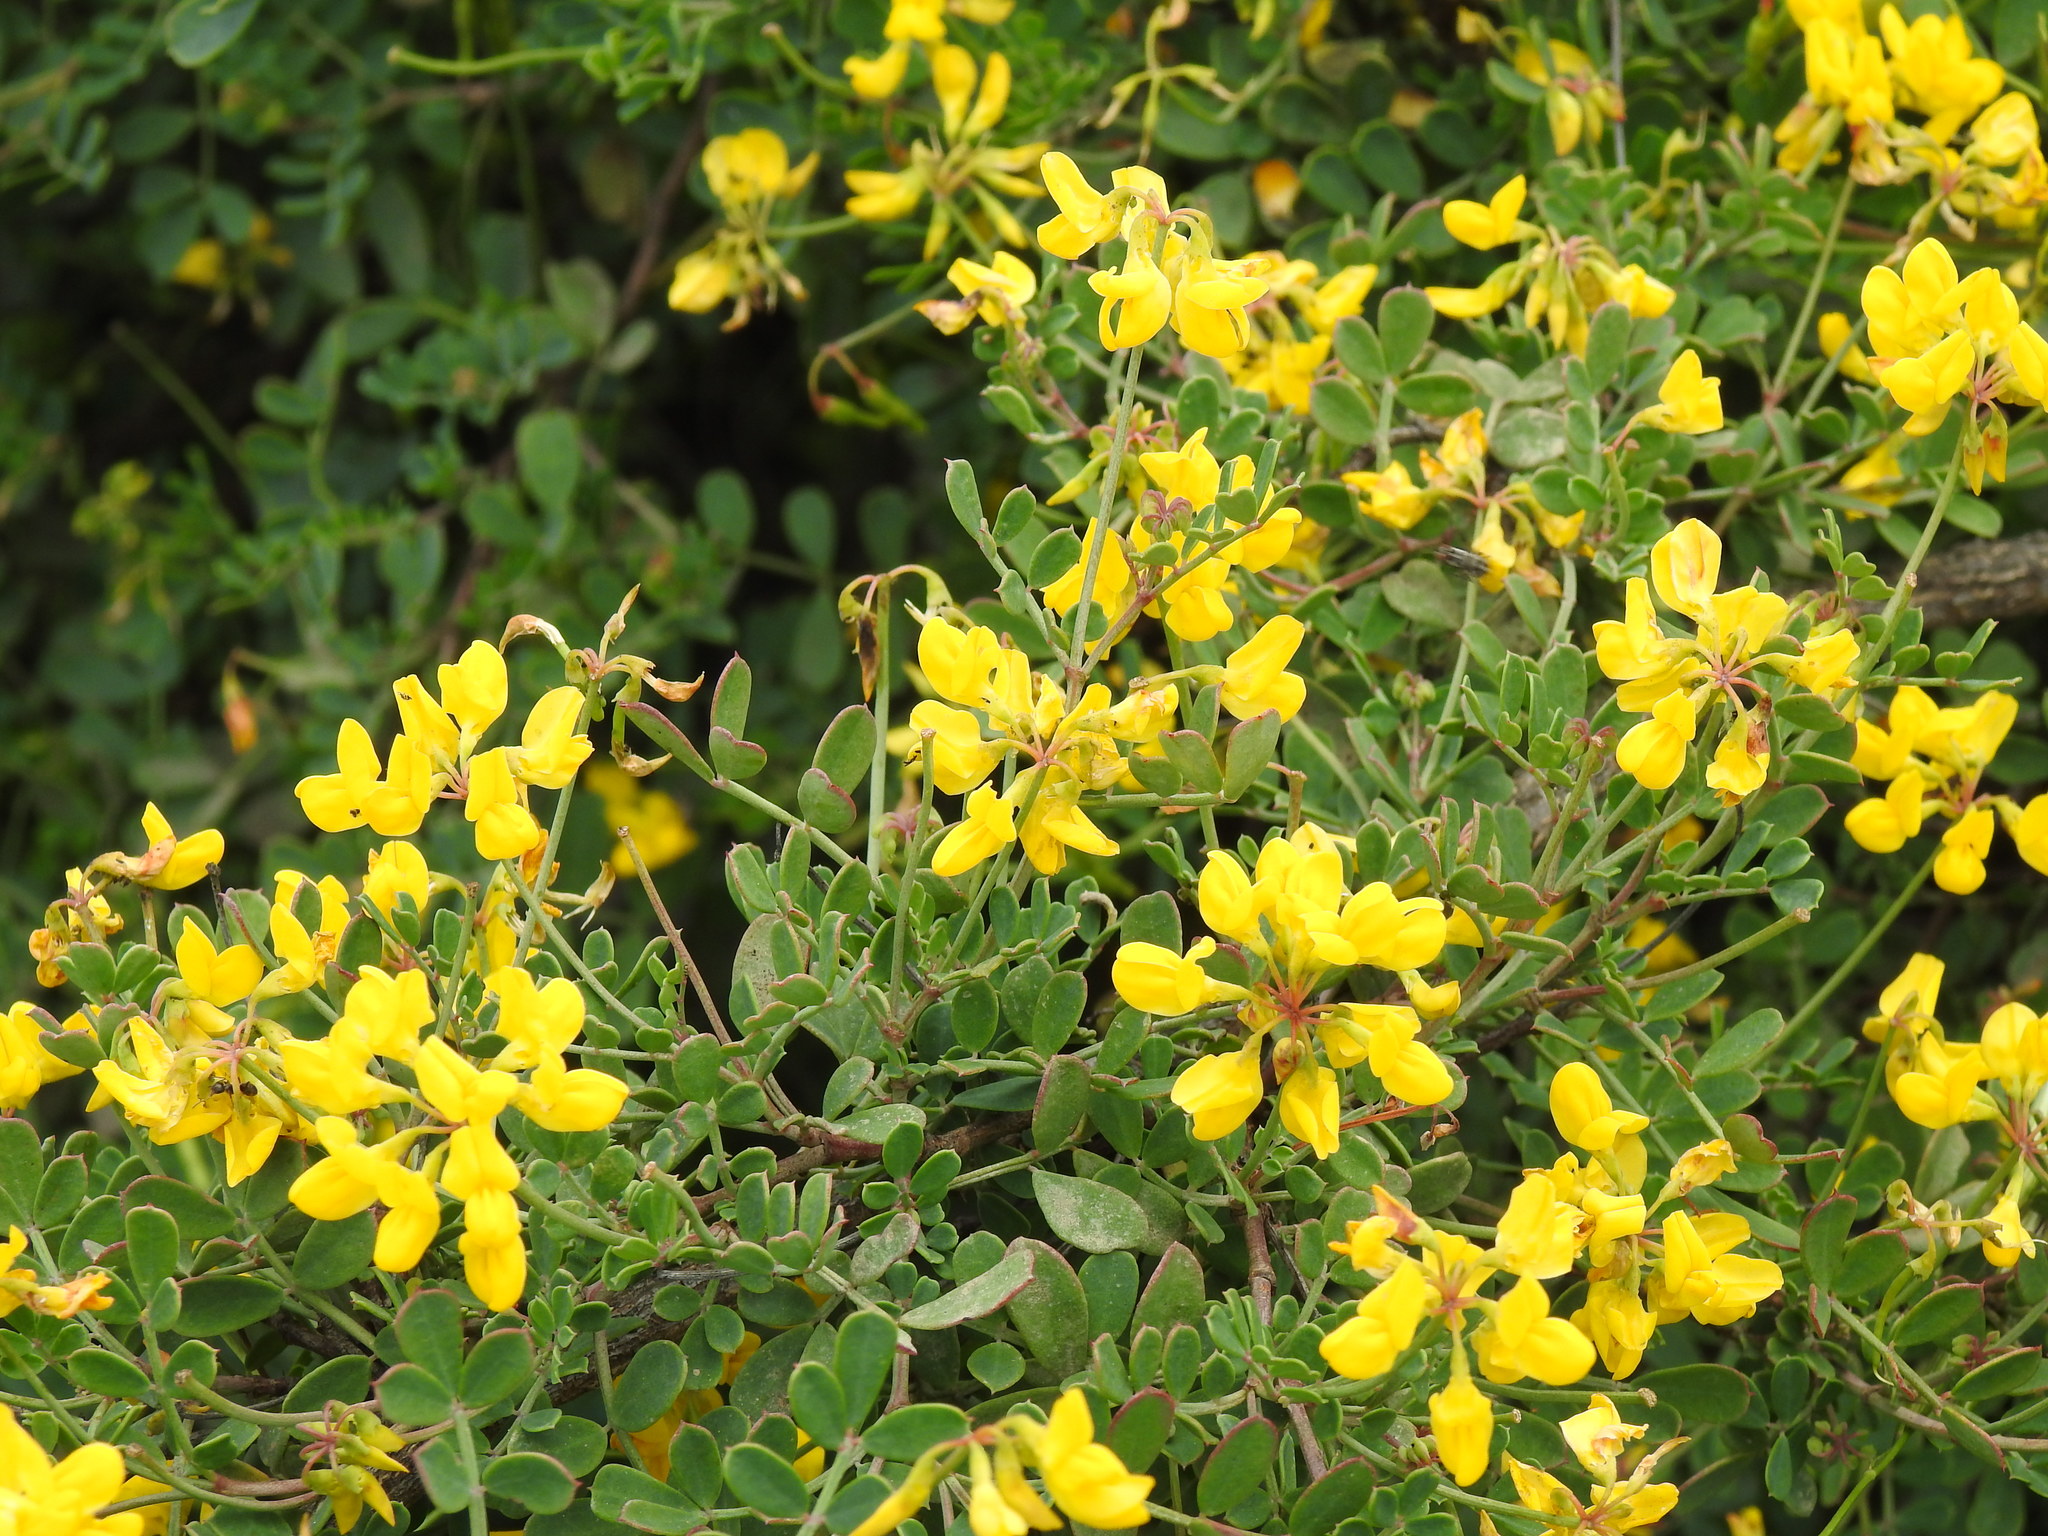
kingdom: Plantae
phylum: Tracheophyta
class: Magnoliopsida
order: Fabales
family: Fabaceae
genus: Coronilla
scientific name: Coronilla valentina
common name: Shrubby scorpion-vetch
